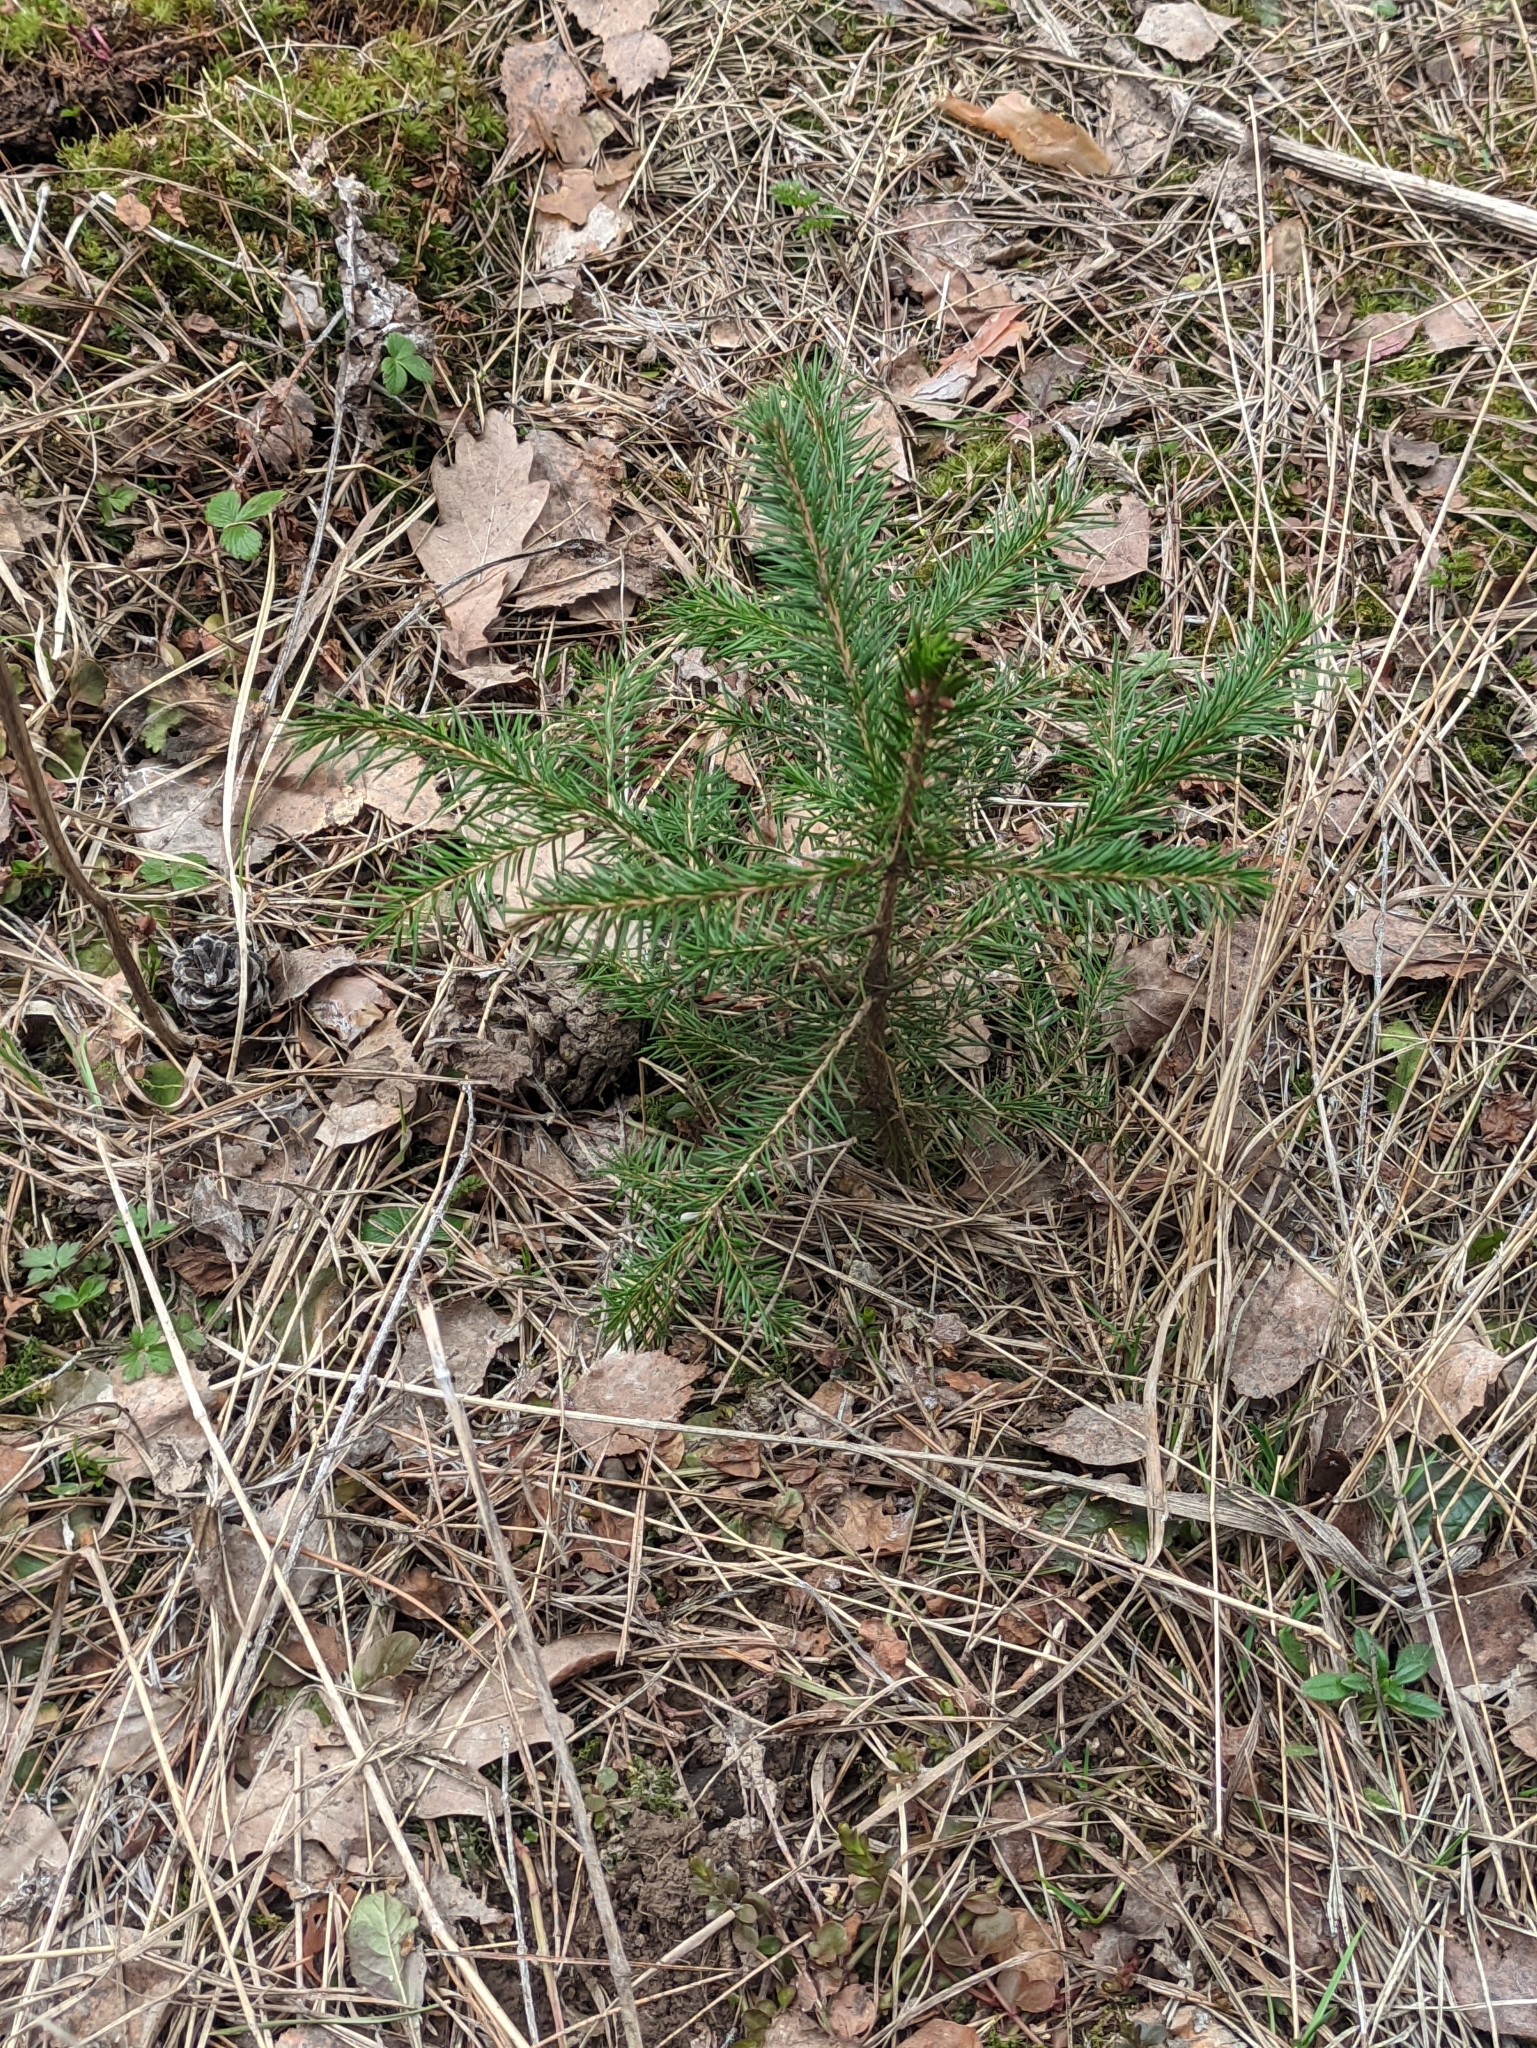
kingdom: Plantae
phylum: Tracheophyta
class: Pinopsida
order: Pinales
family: Pinaceae
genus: Picea
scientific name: Picea abies
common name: Norway spruce
